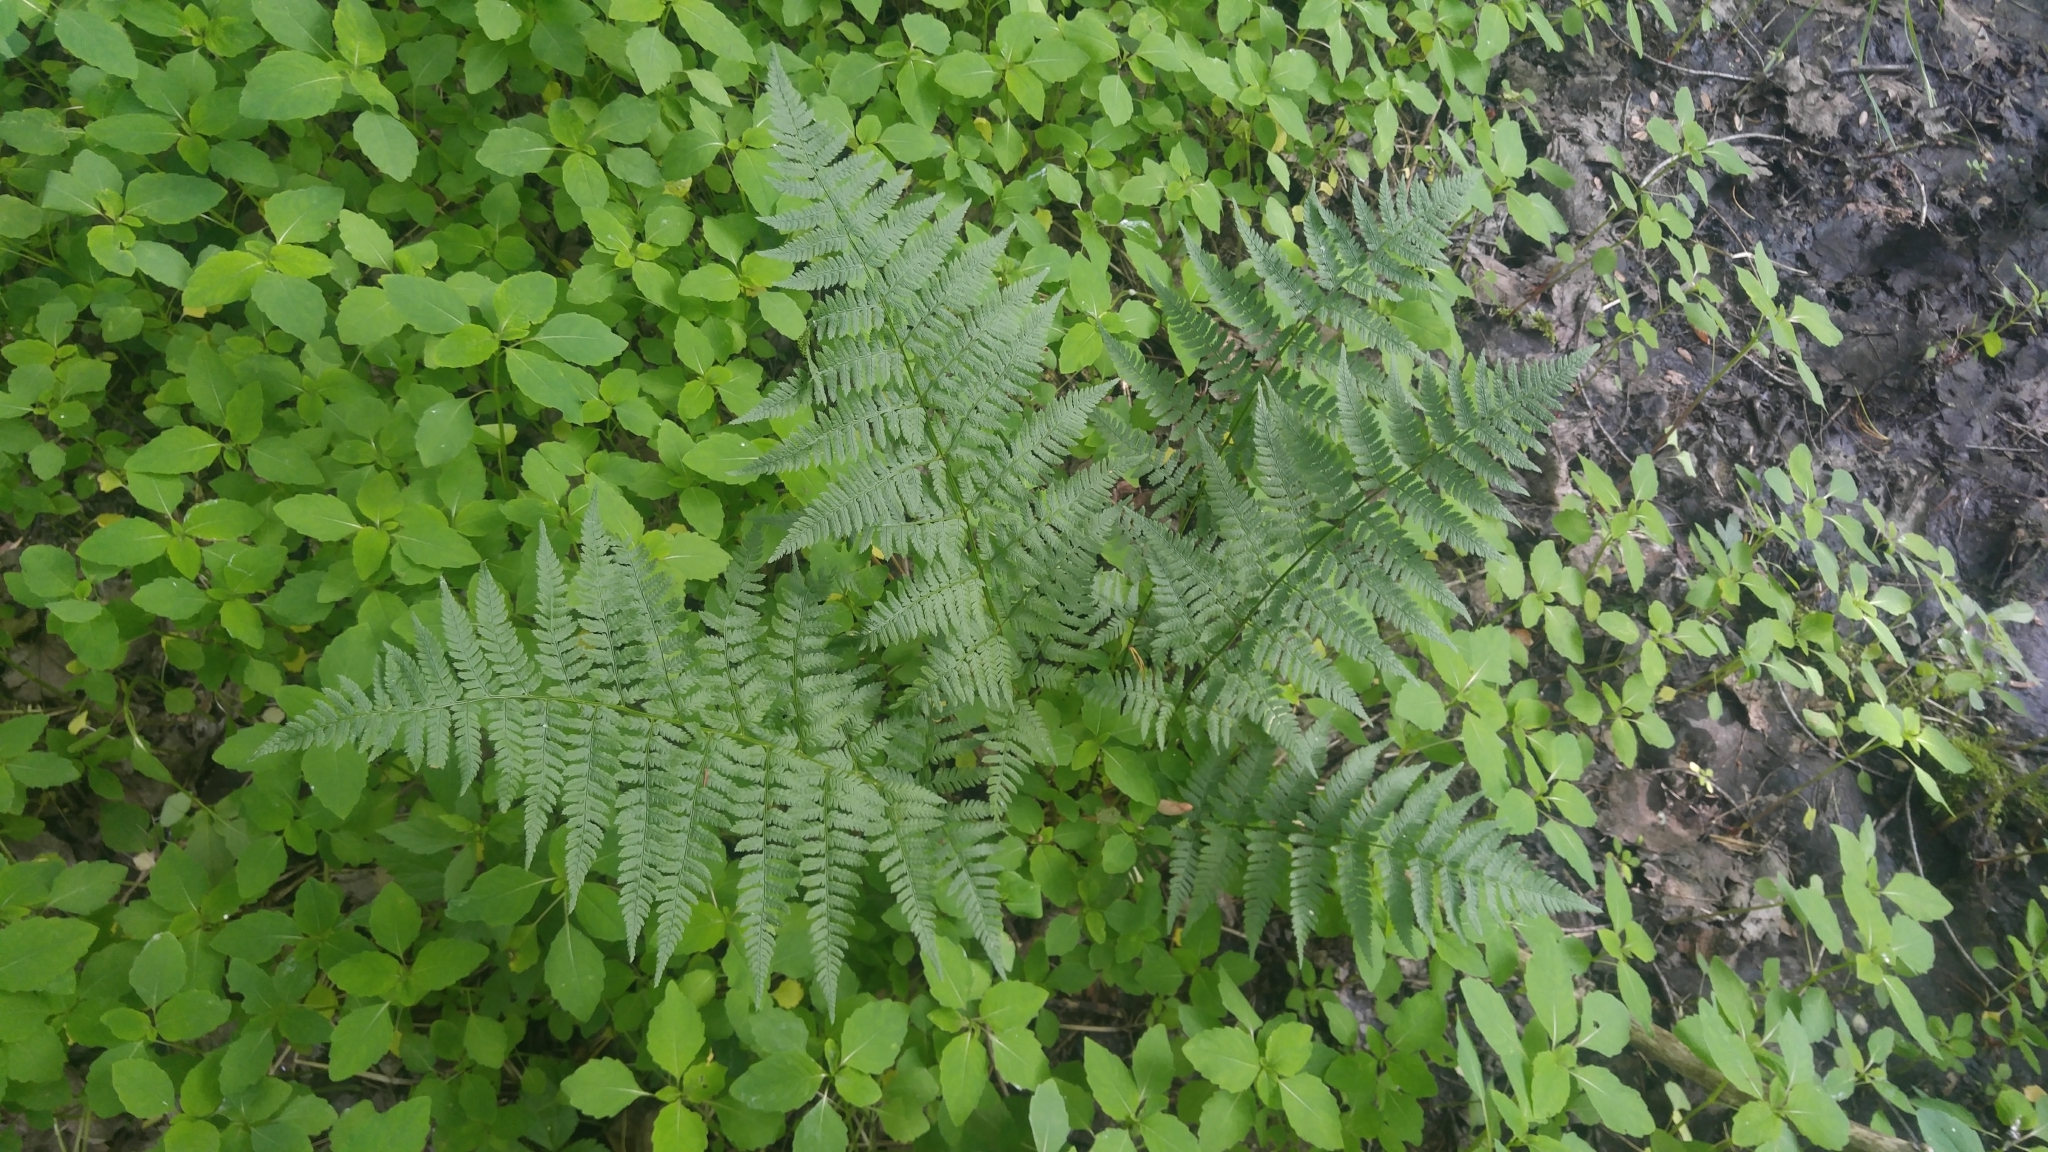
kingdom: Plantae
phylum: Tracheophyta
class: Polypodiopsida
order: Polypodiales
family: Dryopteridaceae
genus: Dryopteris
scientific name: Dryopteris carthusiana
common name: Narrow buckler-fern
